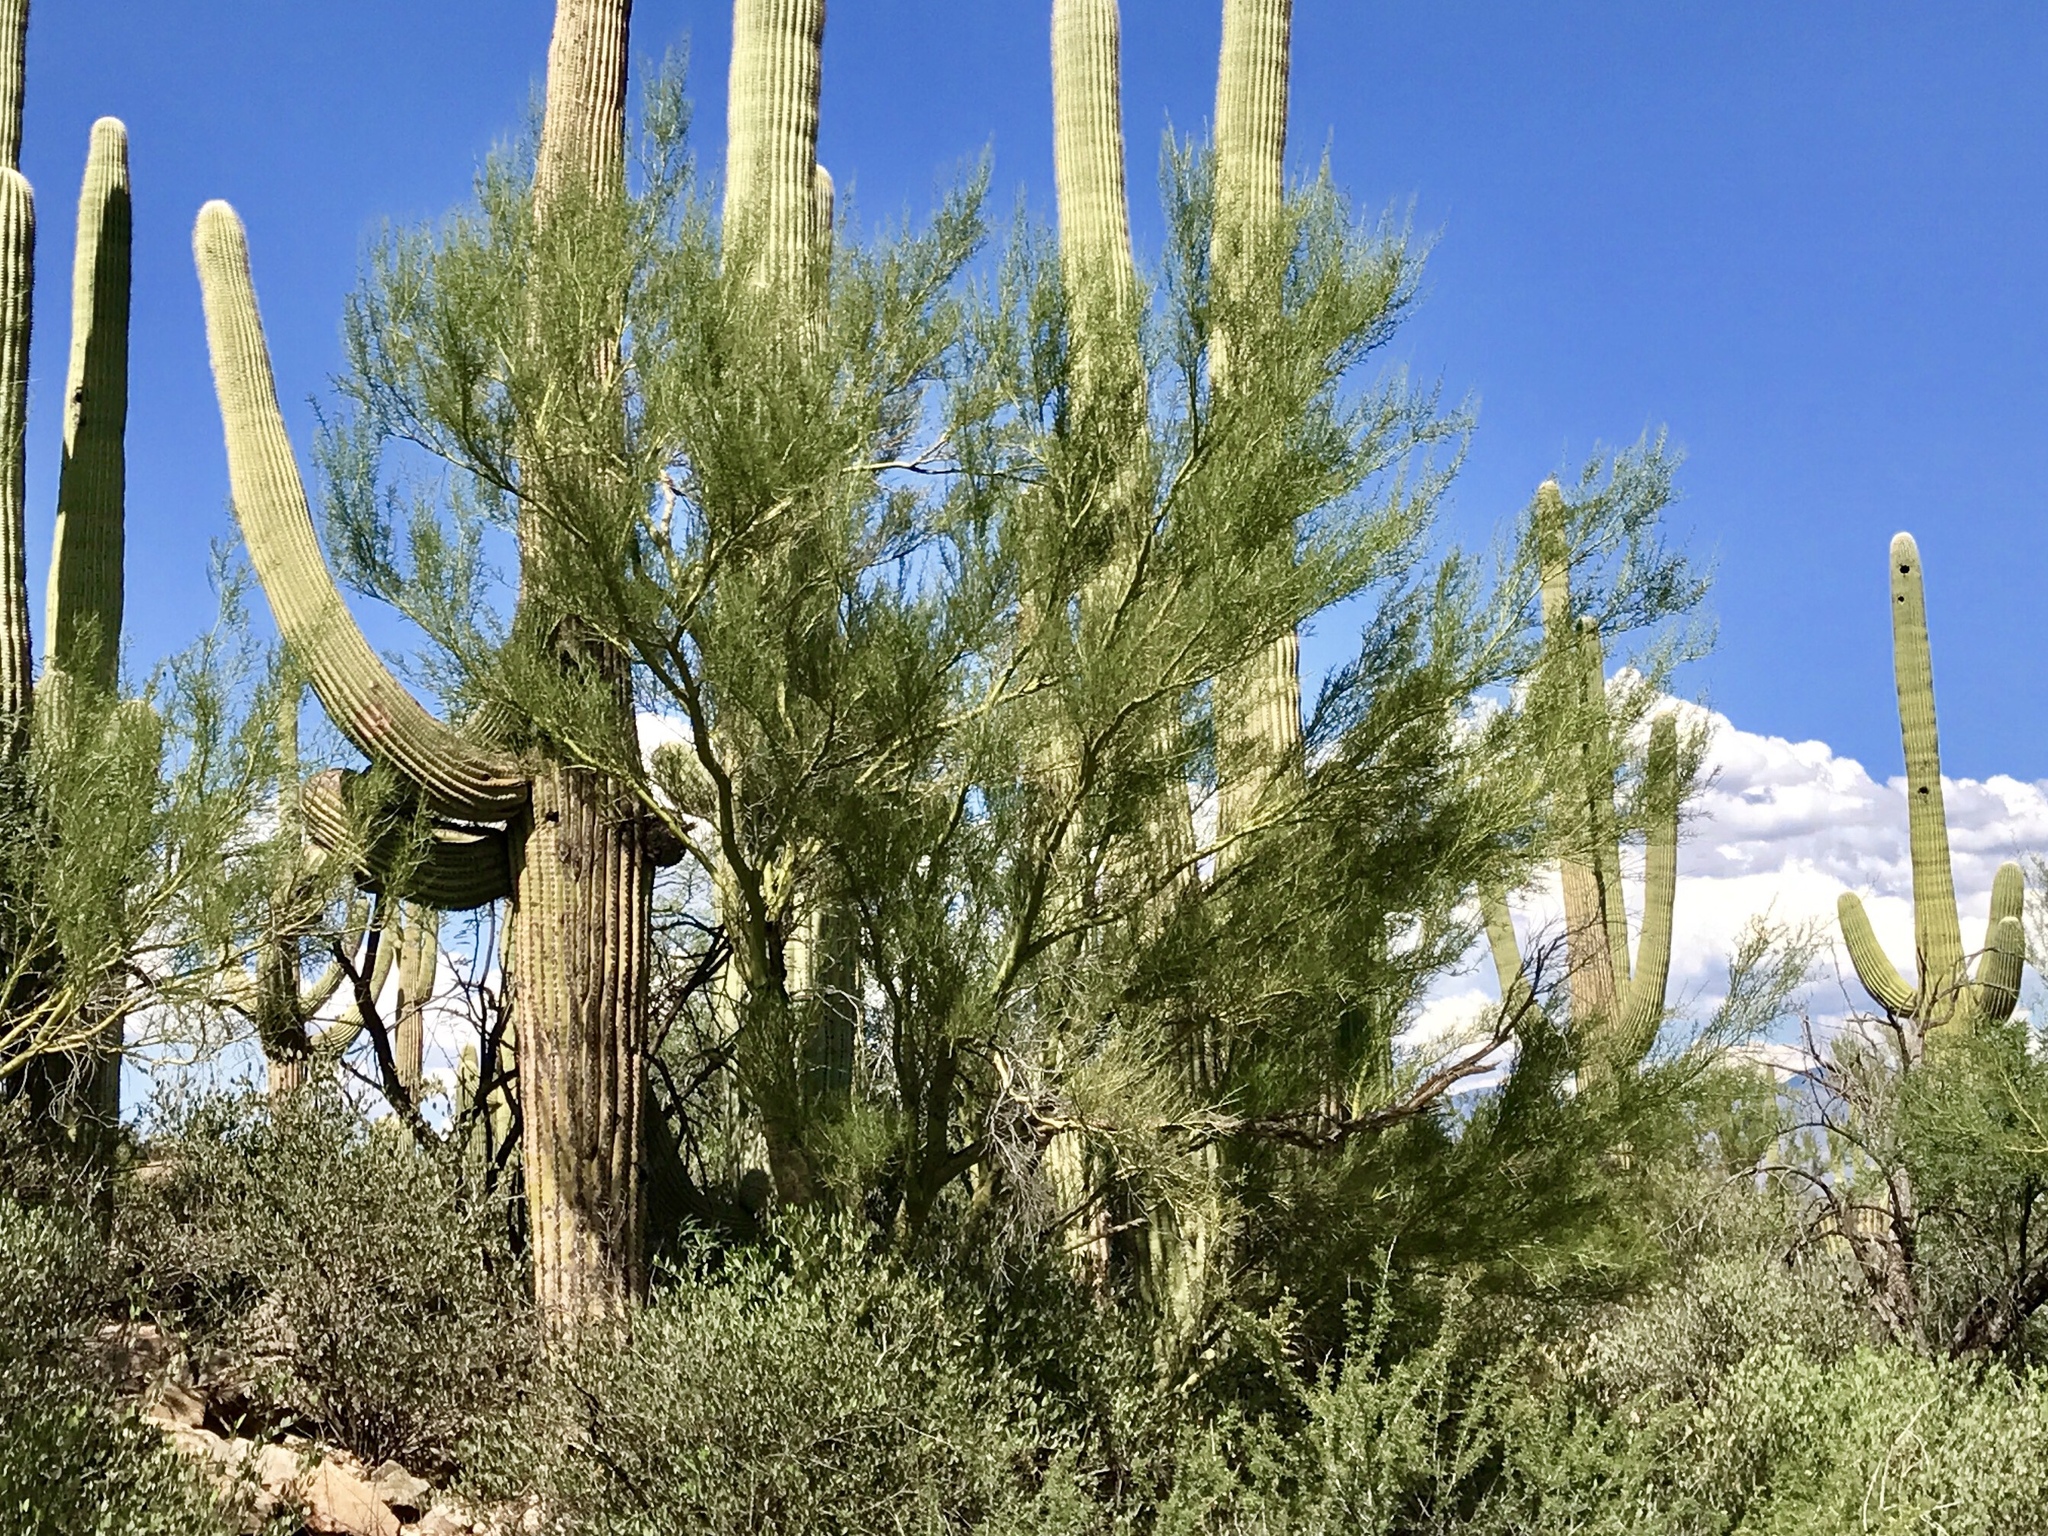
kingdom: Plantae
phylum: Tracheophyta
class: Magnoliopsida
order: Fabales
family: Fabaceae
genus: Parkinsonia
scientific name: Parkinsonia microphylla
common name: Yellow paloverde
